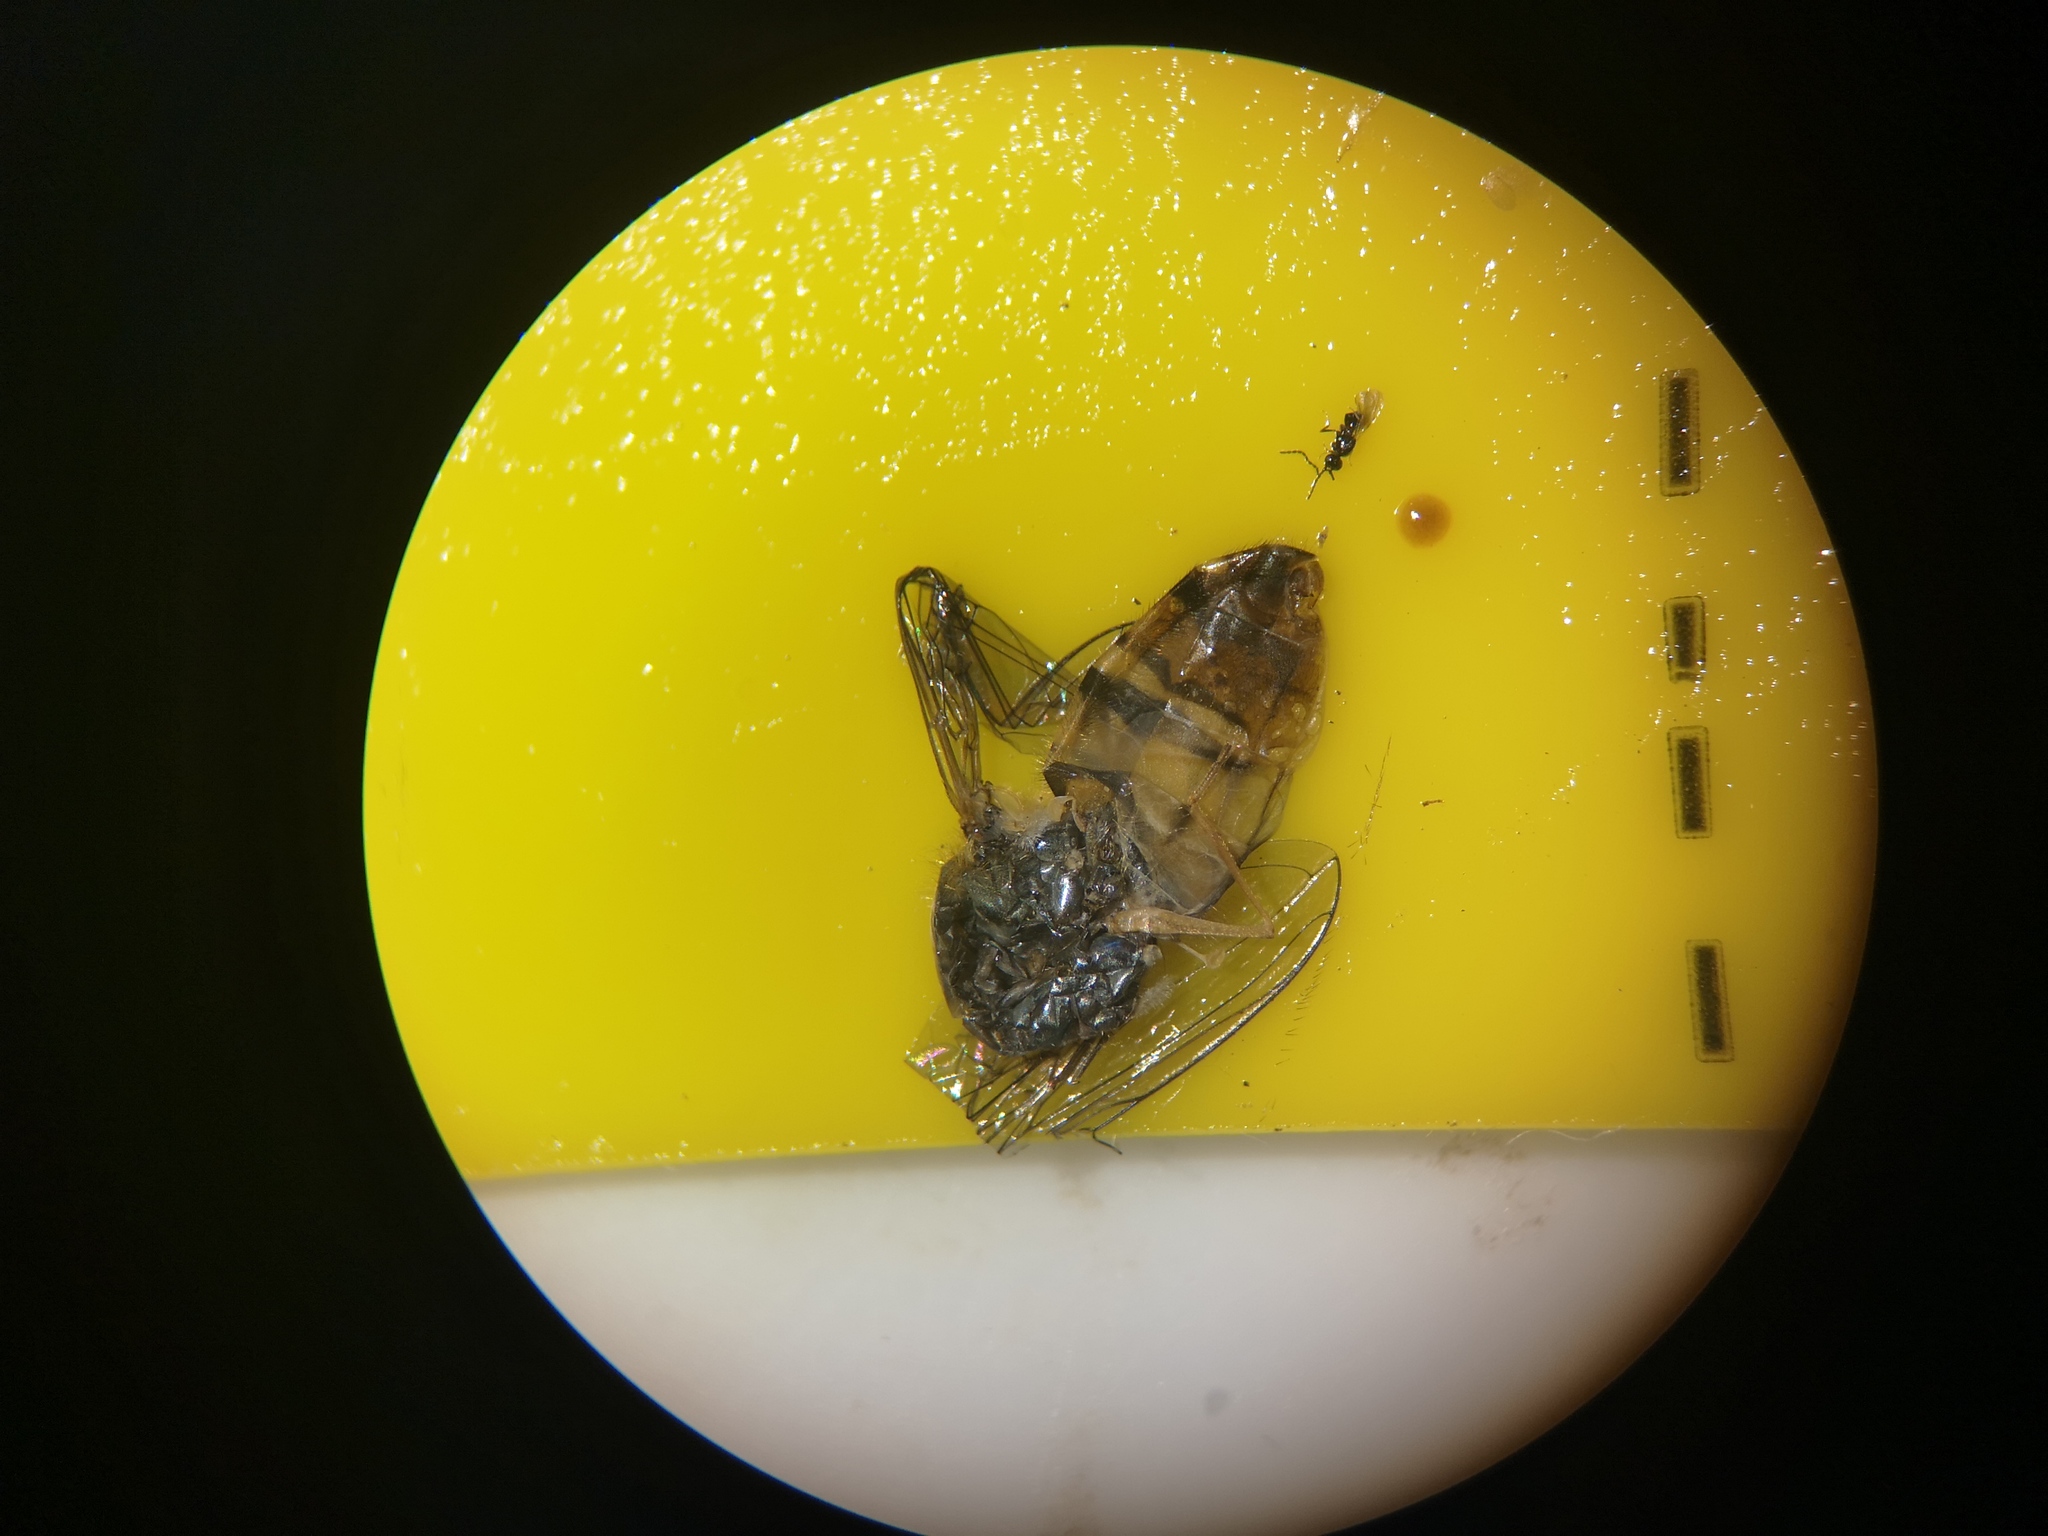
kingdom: Animalia
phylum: Arthropoda
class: Insecta
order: Diptera
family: Syrphidae
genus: Episyrphus
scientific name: Episyrphus balteatus
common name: Marmalade hoverfly
